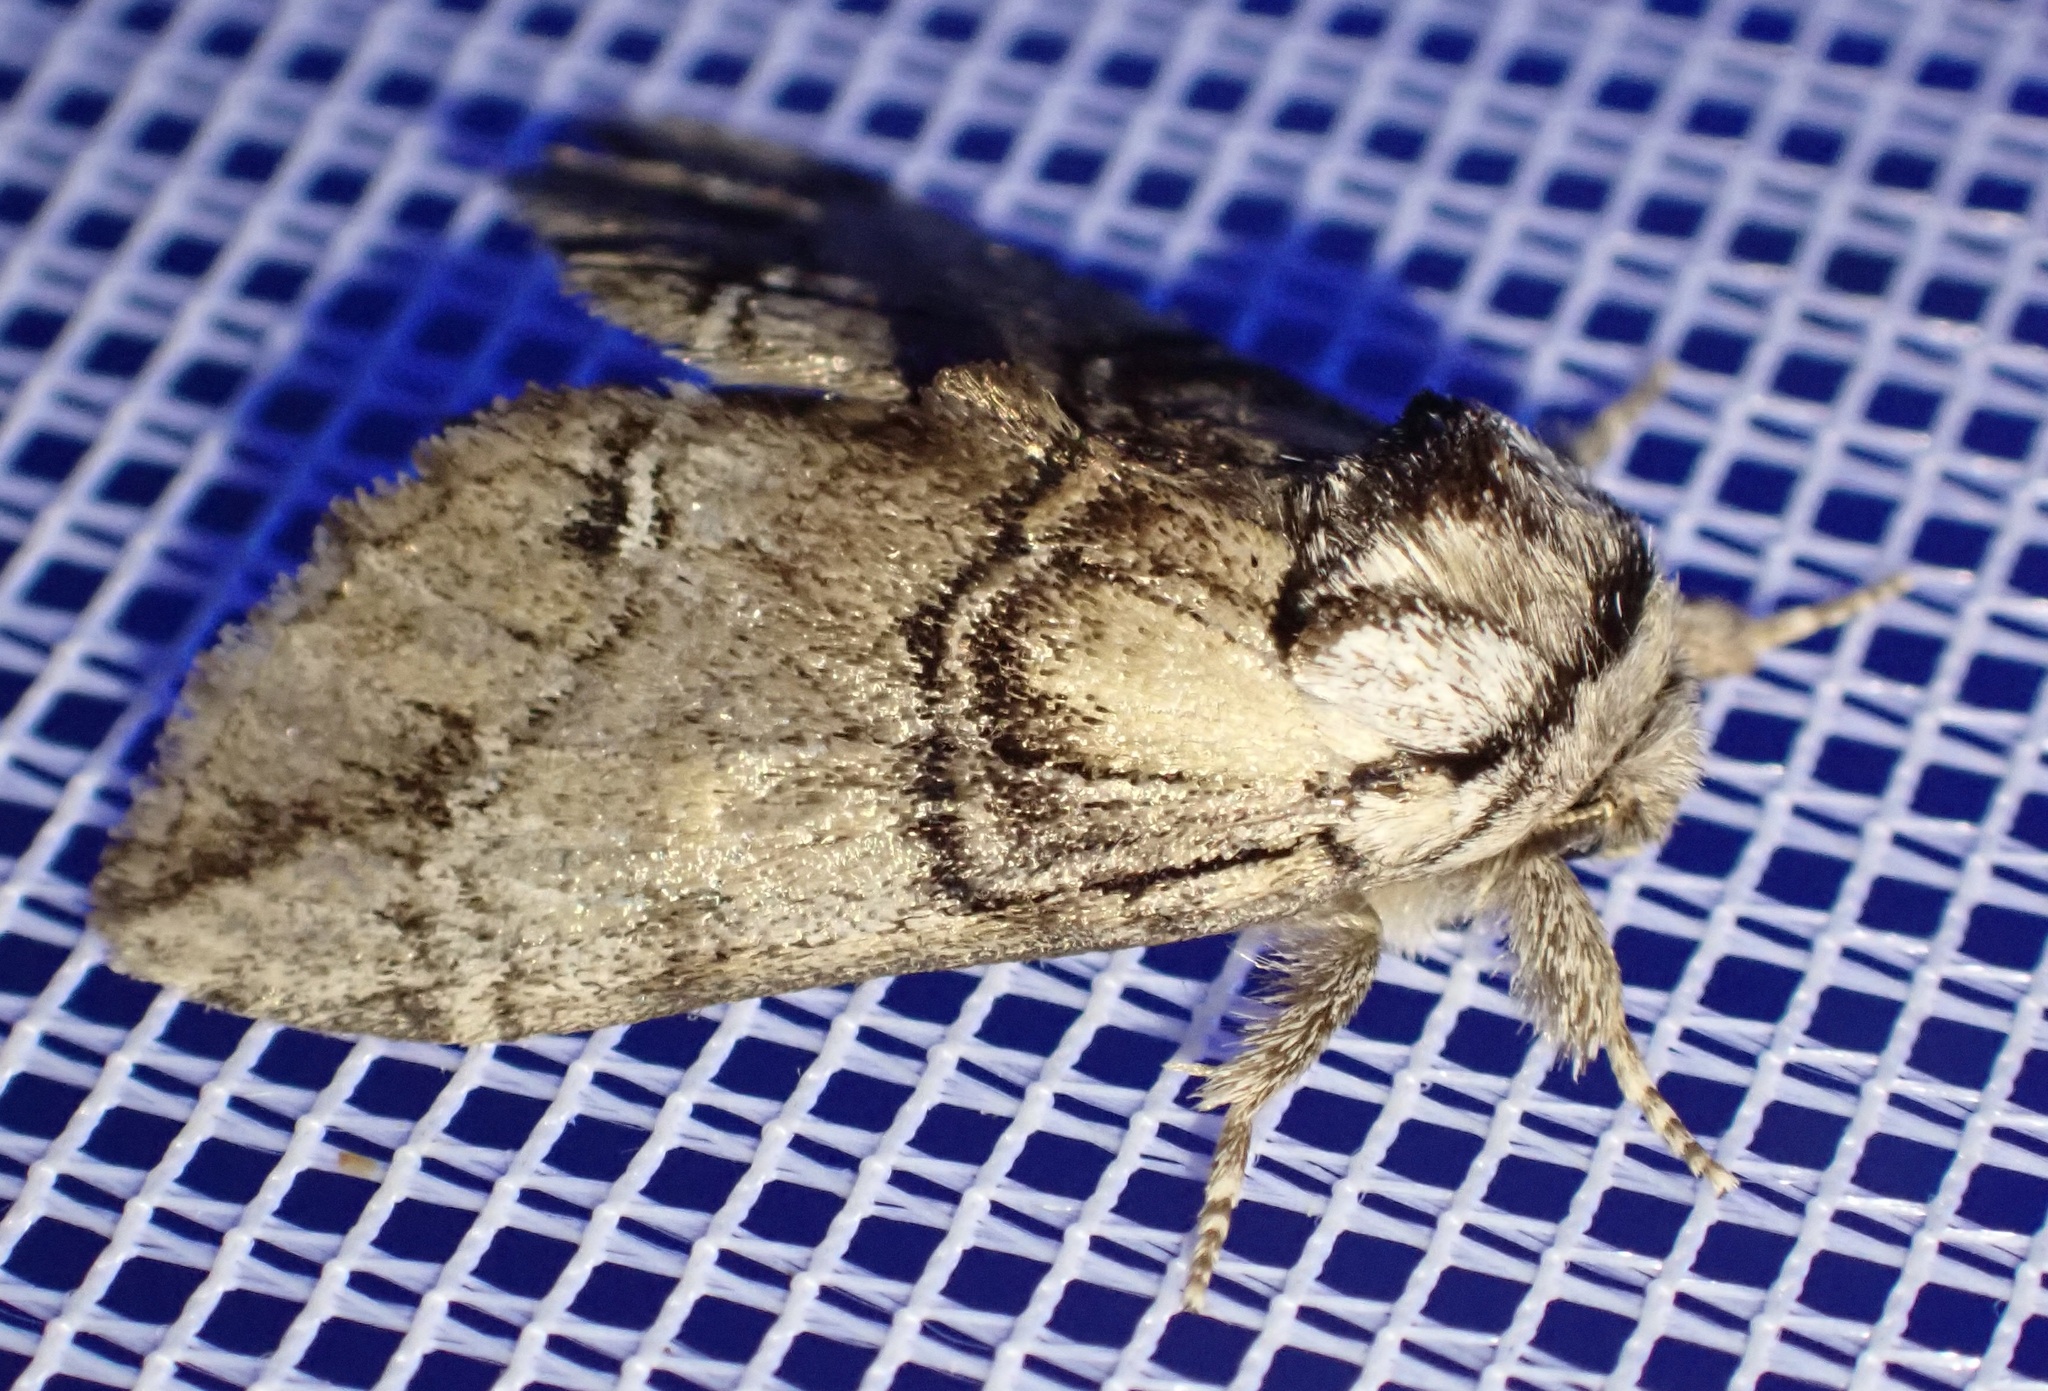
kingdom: Animalia
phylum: Arthropoda
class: Insecta
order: Lepidoptera
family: Notodontidae
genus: Drymonia
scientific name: Drymonia velitaris
